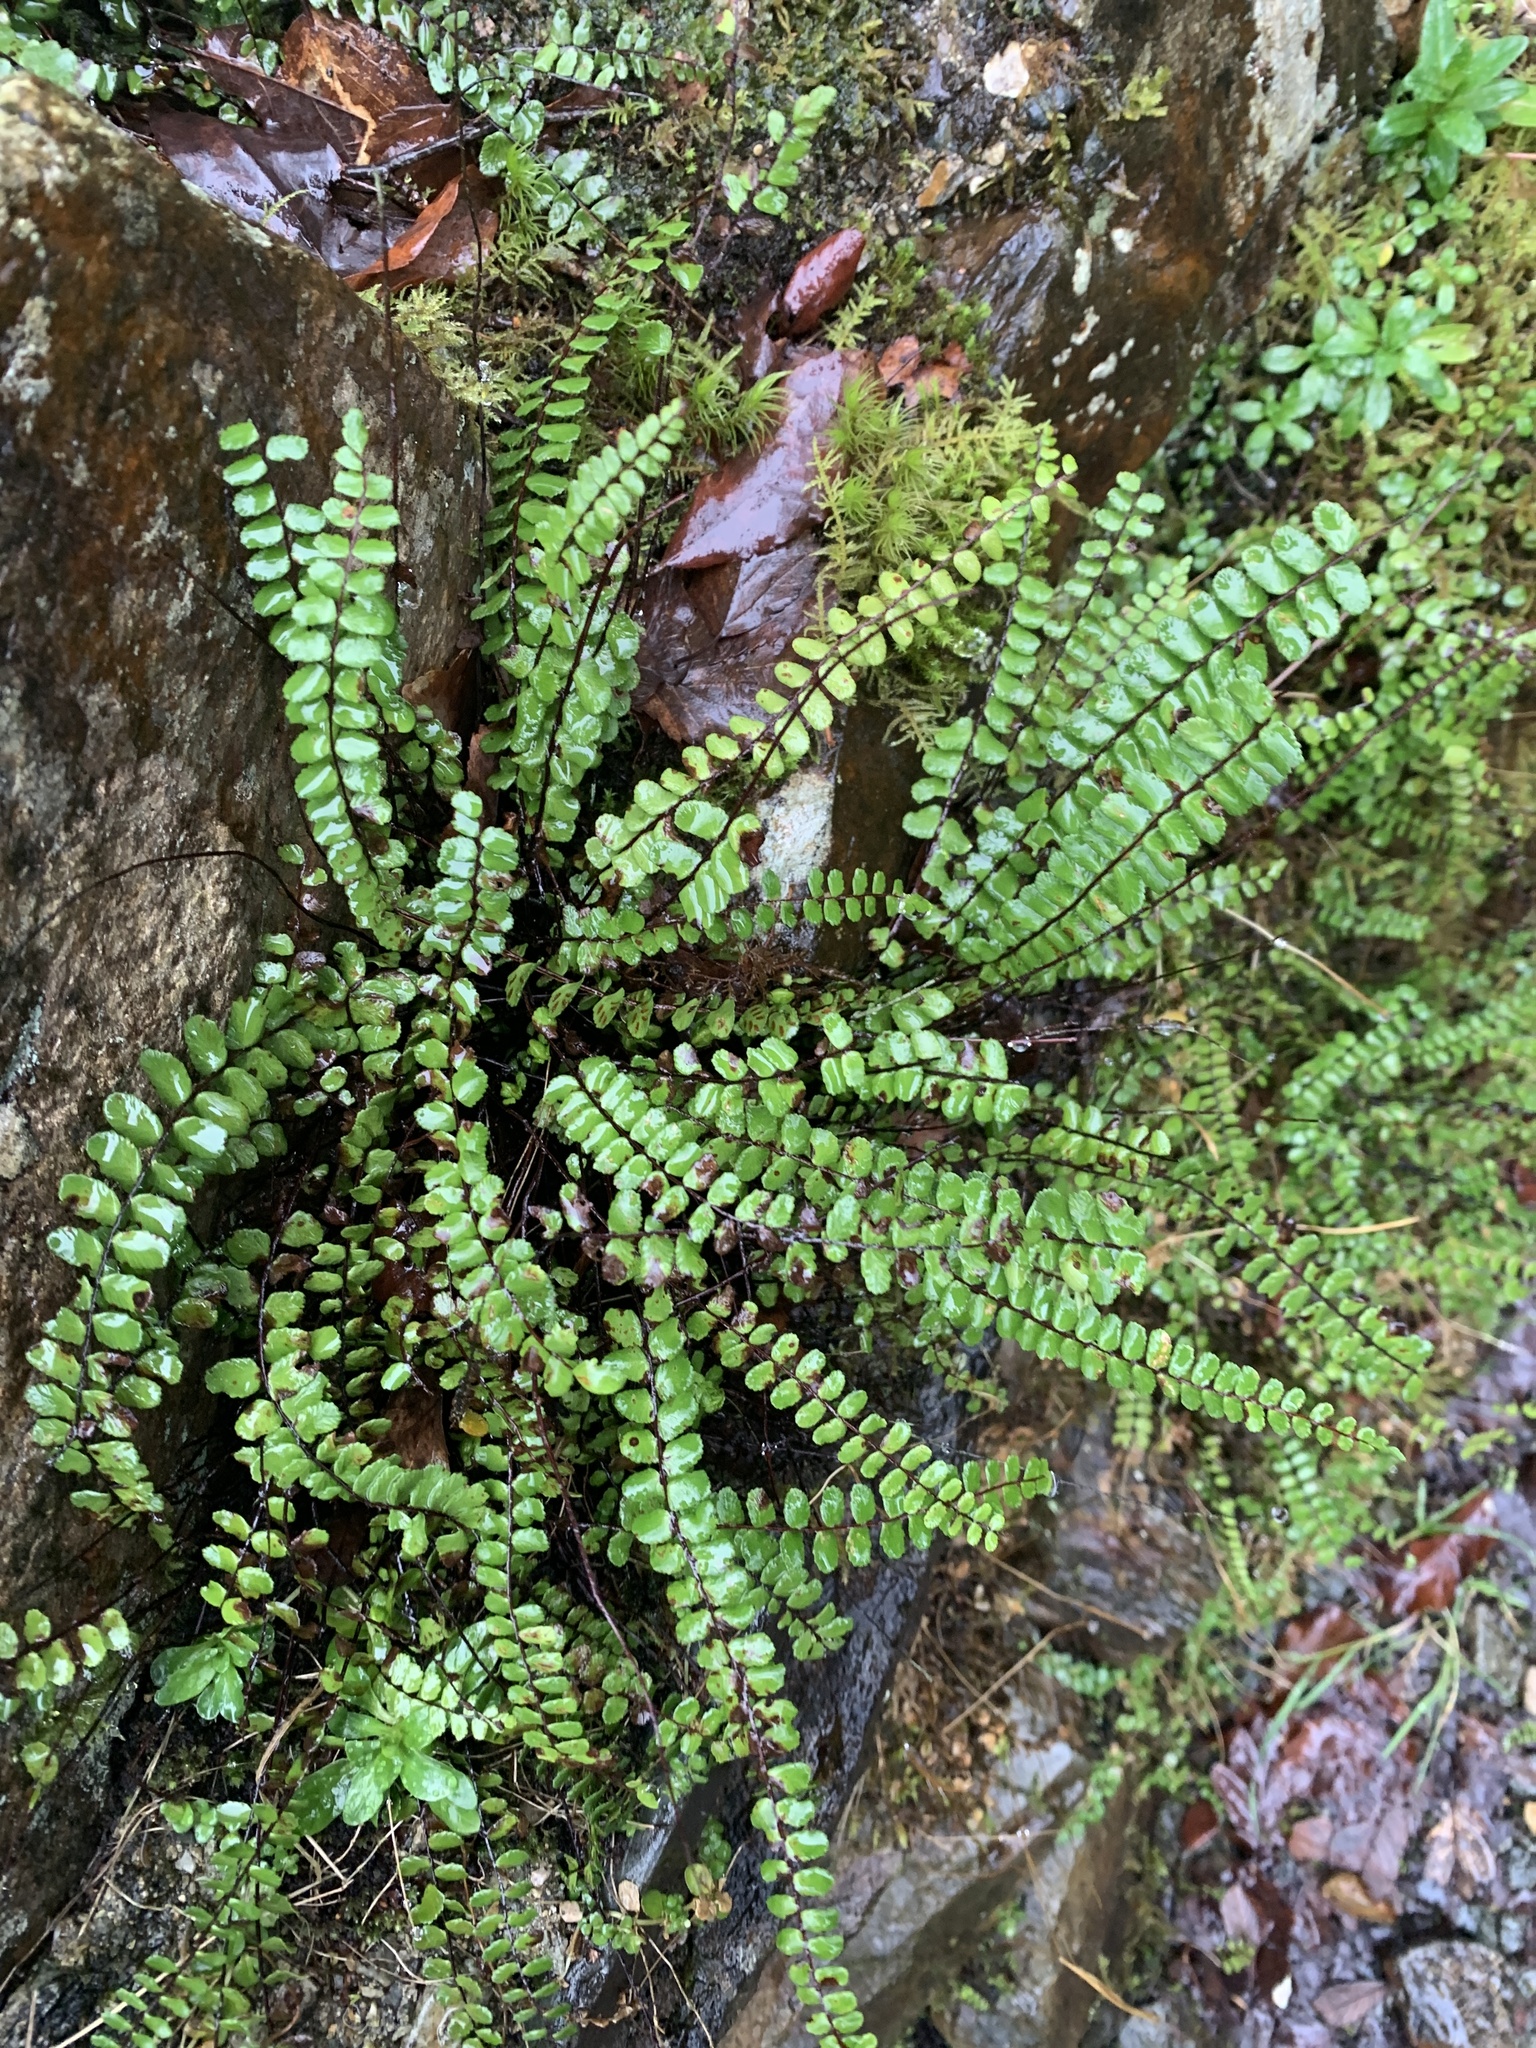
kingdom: Plantae
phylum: Tracheophyta
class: Polypodiopsida
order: Polypodiales
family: Aspleniaceae
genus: Asplenium
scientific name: Asplenium trichomanes
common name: Maidenhair spleenwort
